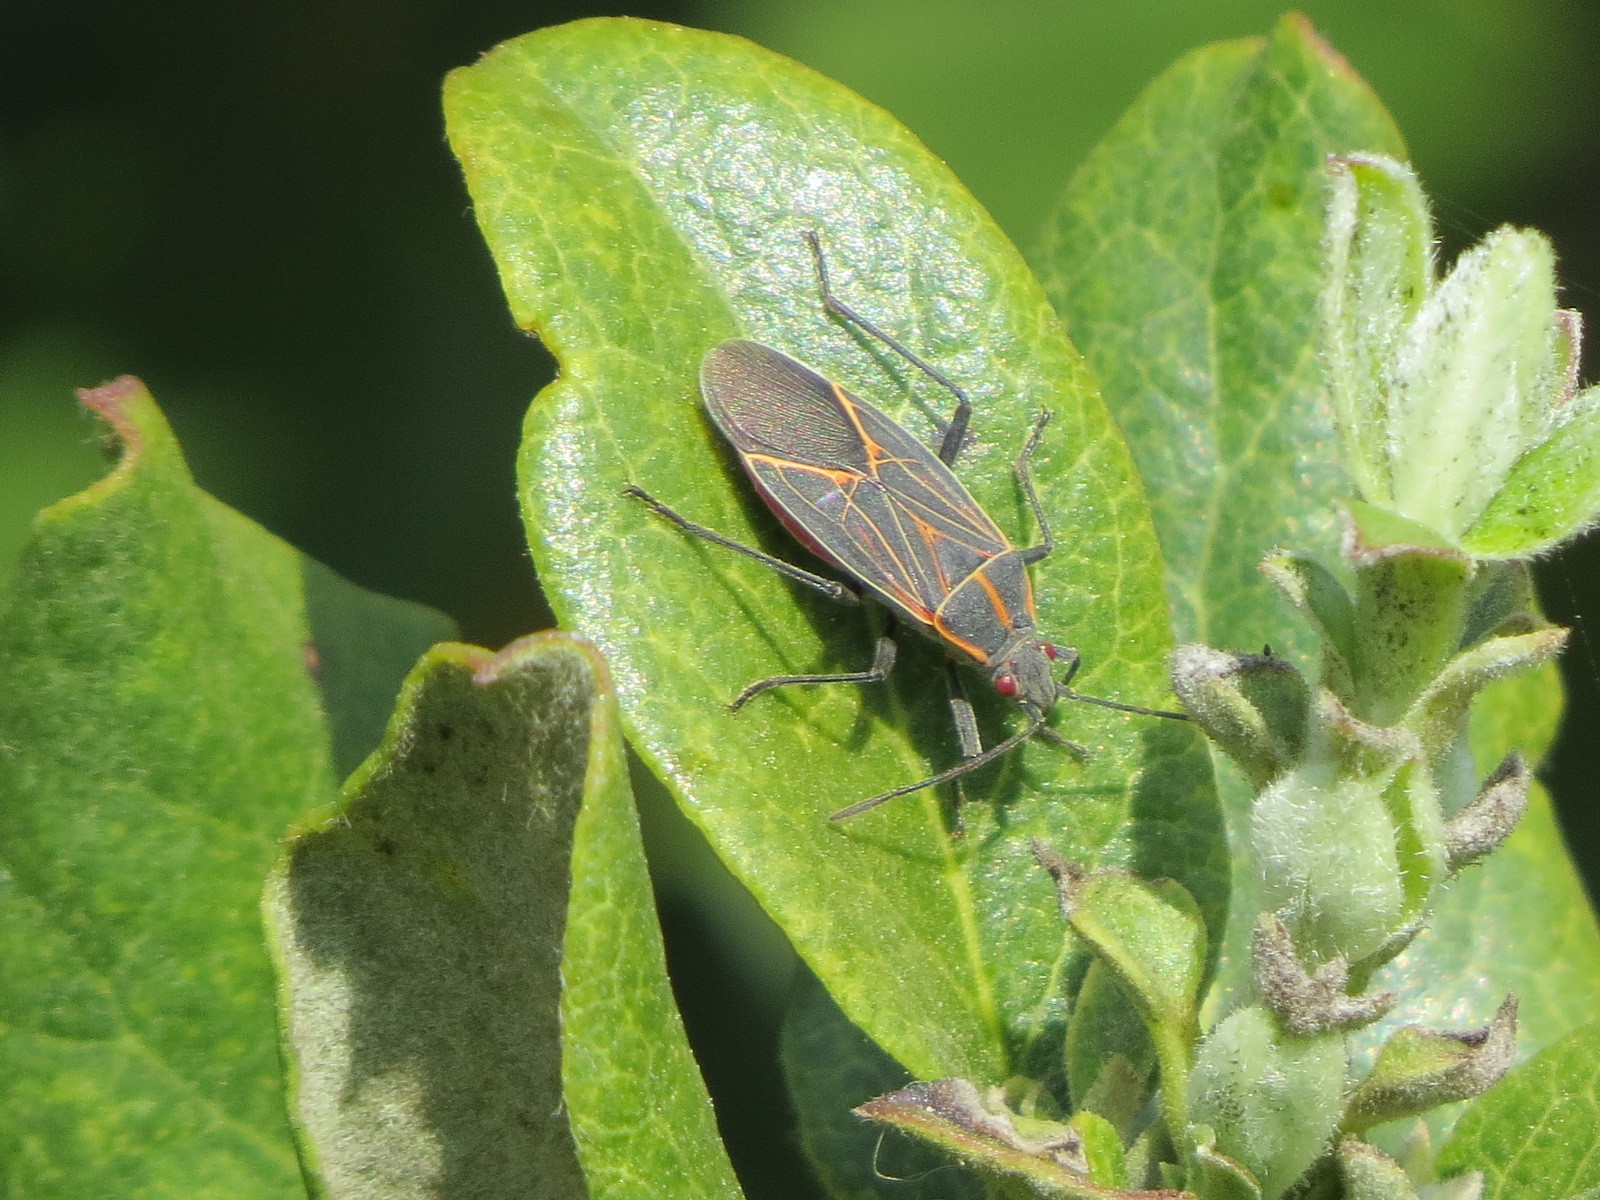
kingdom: Animalia
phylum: Arthropoda
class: Insecta
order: Hemiptera
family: Rhopalidae
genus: Boisea
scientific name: Boisea rubrolineata
